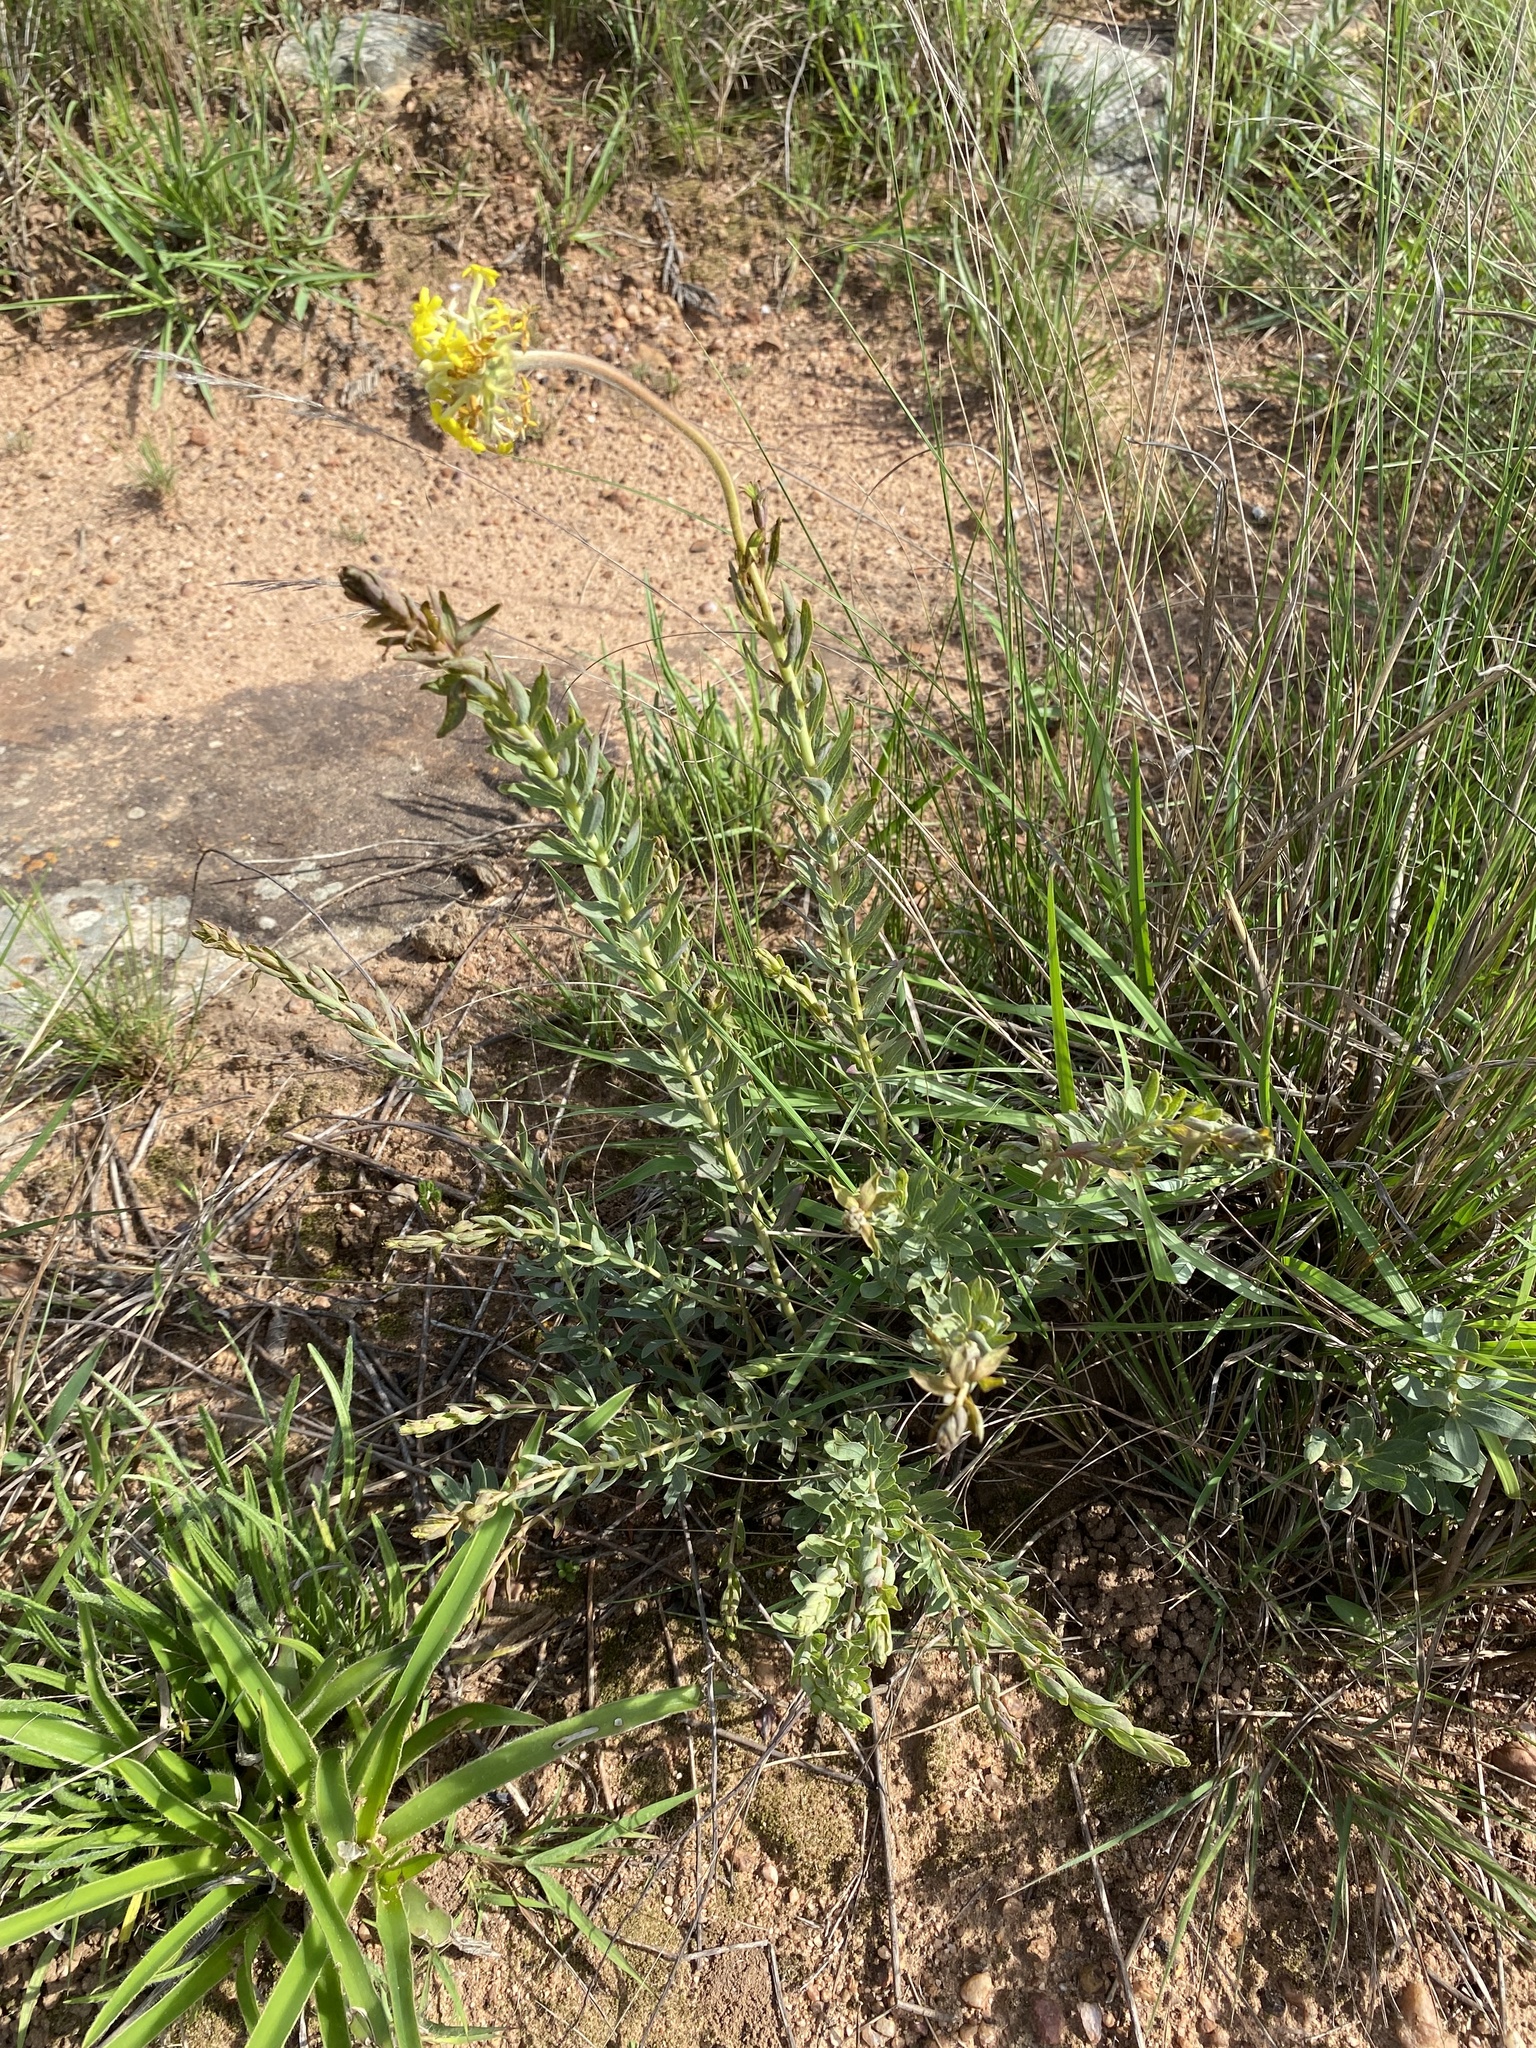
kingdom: Plantae
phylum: Tracheophyta
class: Magnoliopsida
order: Malvales
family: Thymelaeaceae
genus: Gnidia
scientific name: Gnidia kraussiana
